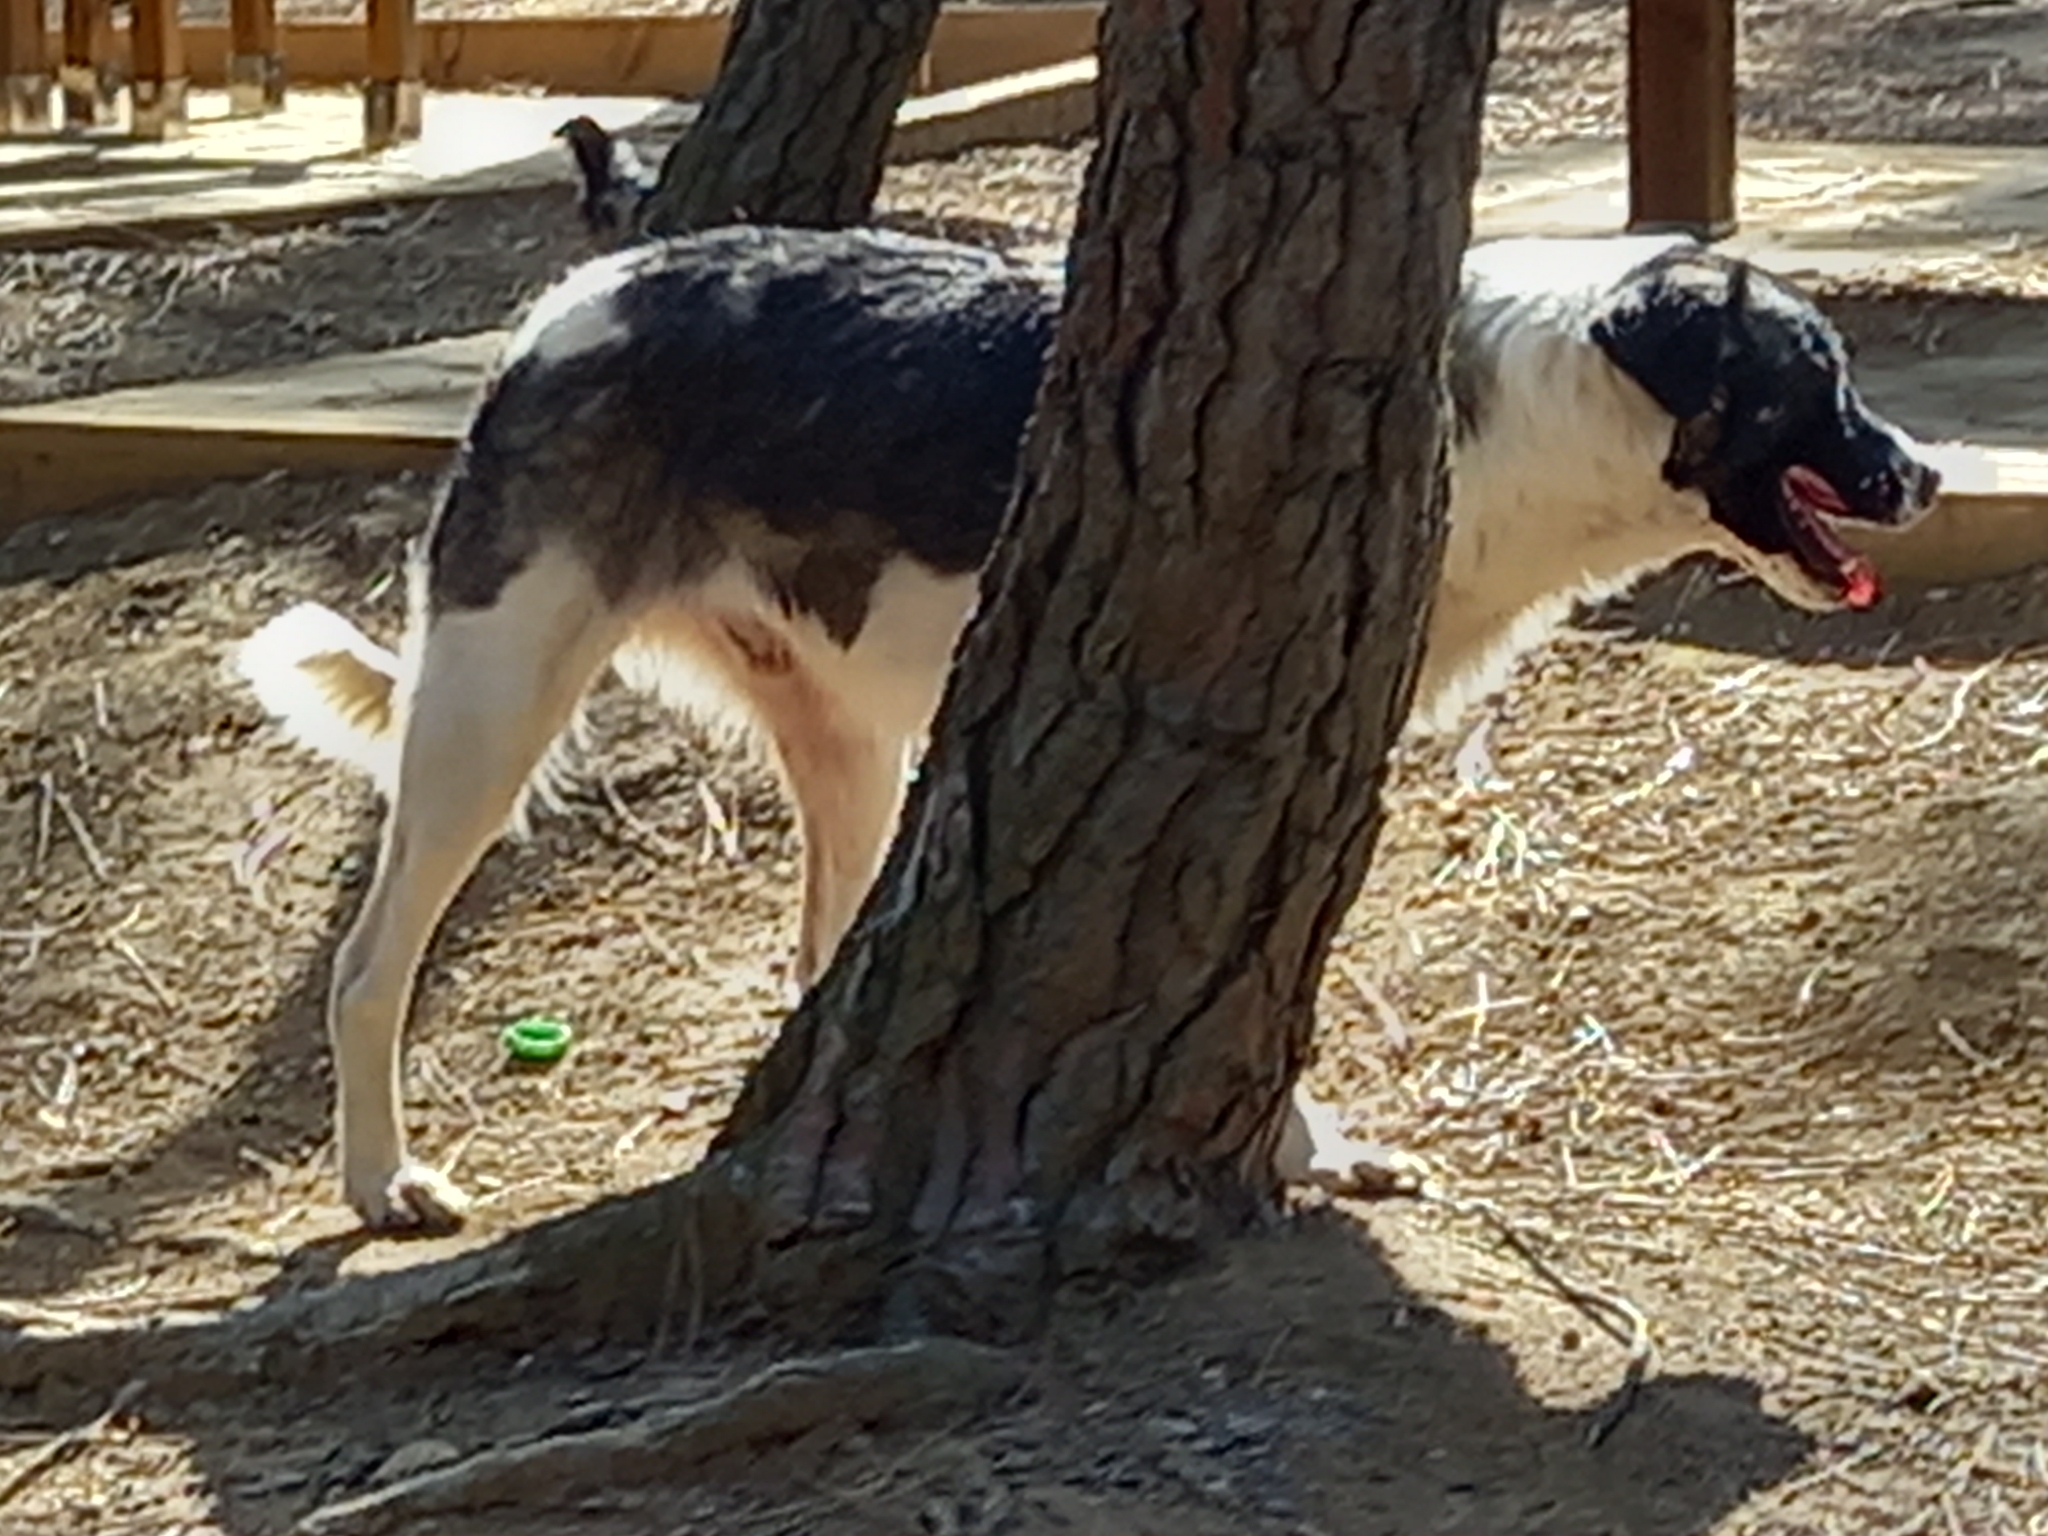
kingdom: Animalia
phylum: Chordata
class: Mammalia
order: Carnivora
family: Canidae
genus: Canis
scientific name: Canis lupus
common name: Gray wolf
